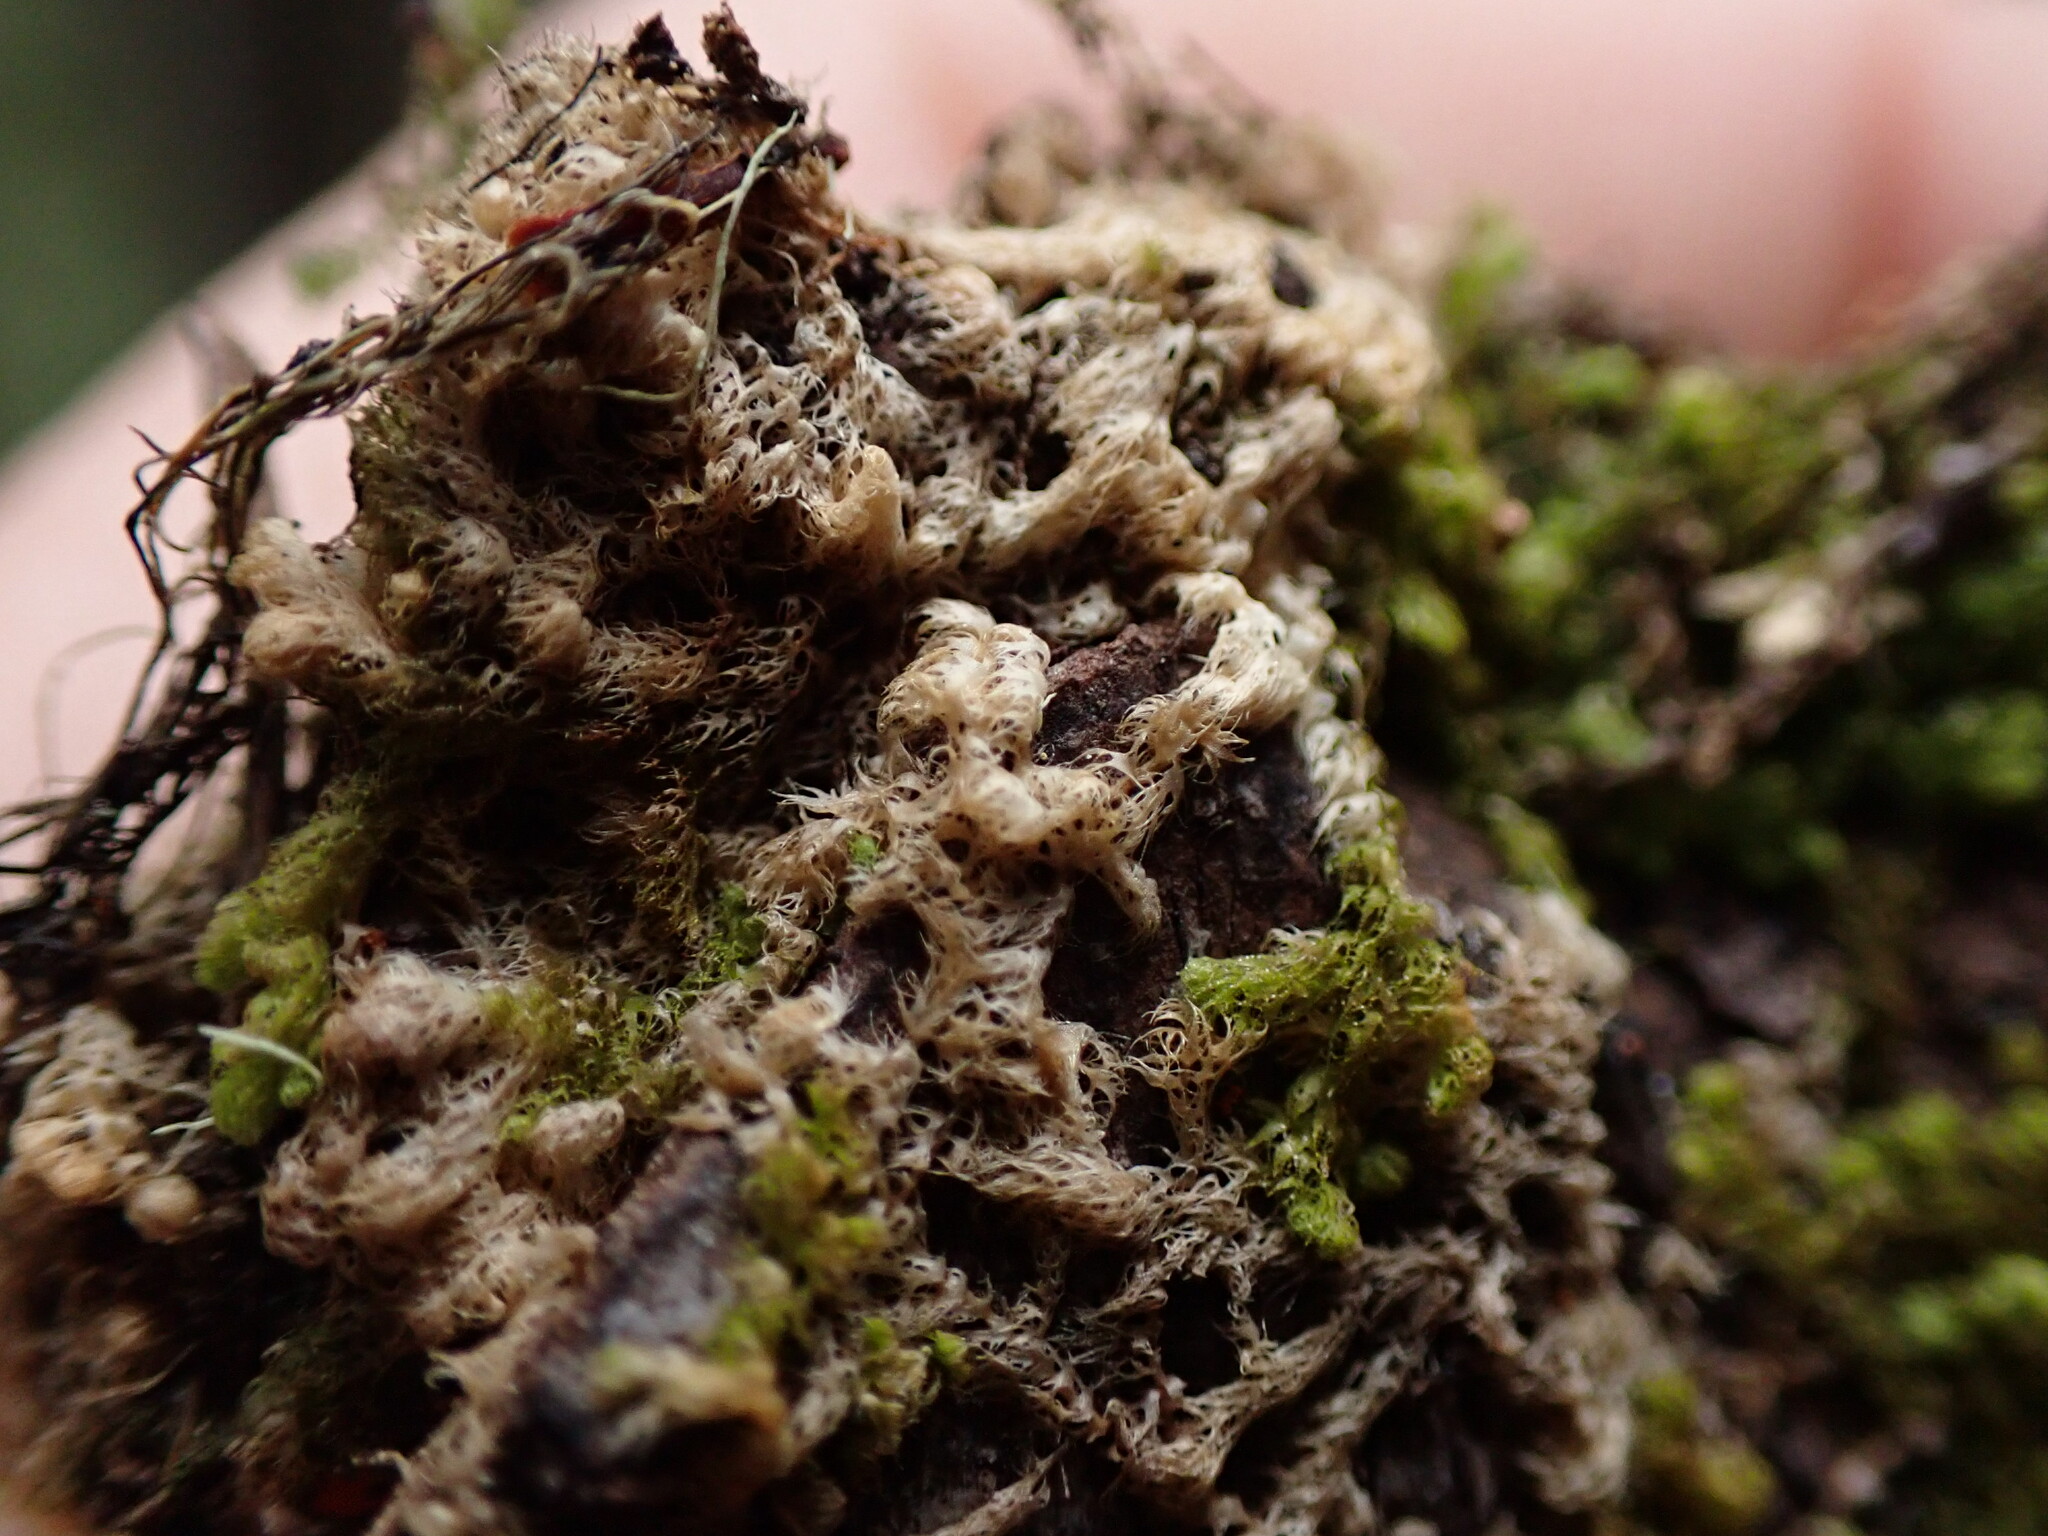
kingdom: Plantae
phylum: Marchantiophyta
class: Jungermanniopsida
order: Ptilidiales
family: Ptilidiaceae
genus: Ptilidium
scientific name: Ptilidium californicum
